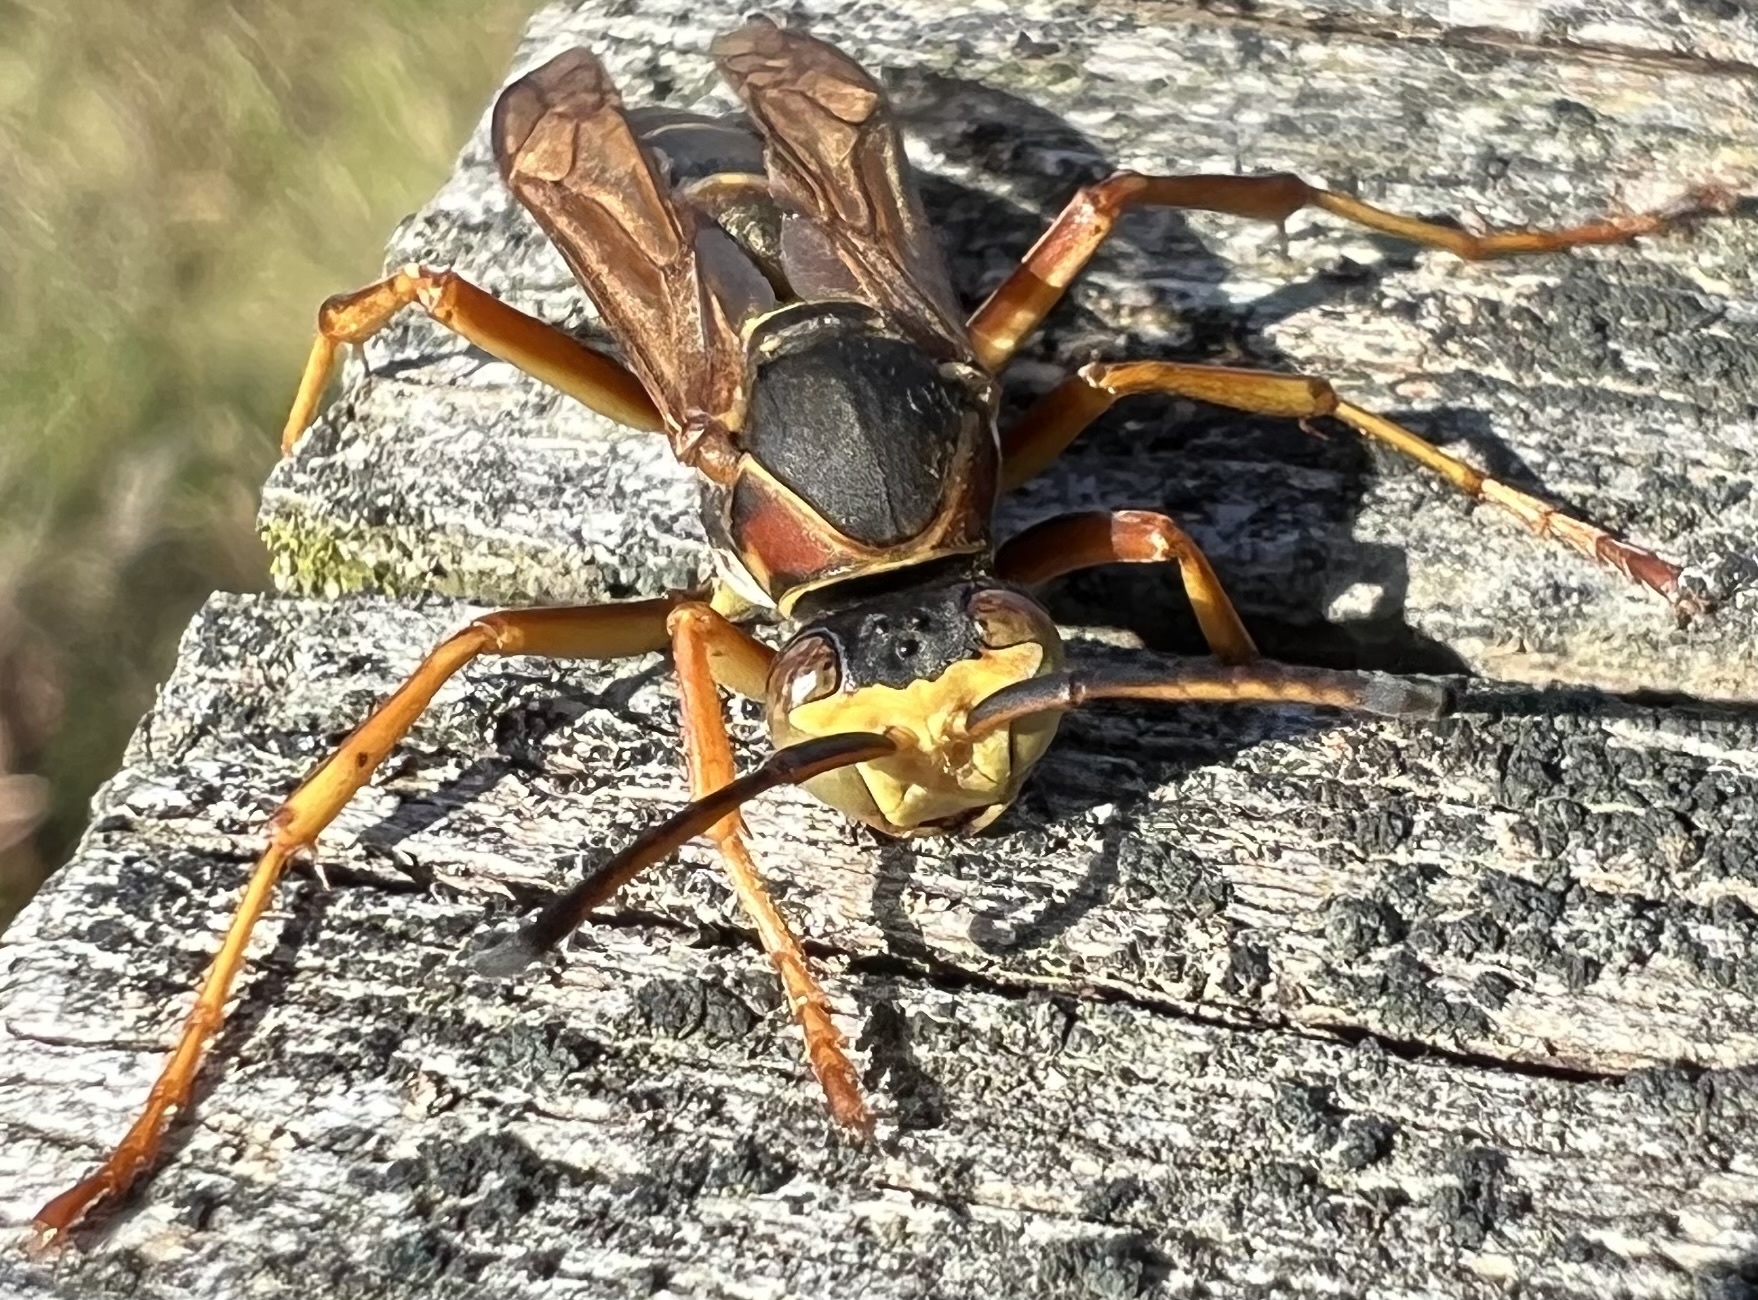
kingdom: Animalia
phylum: Arthropoda
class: Insecta
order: Hymenoptera
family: Eumenidae
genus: Polistes
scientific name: Polistes fuscatus
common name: Dark paper wasp
